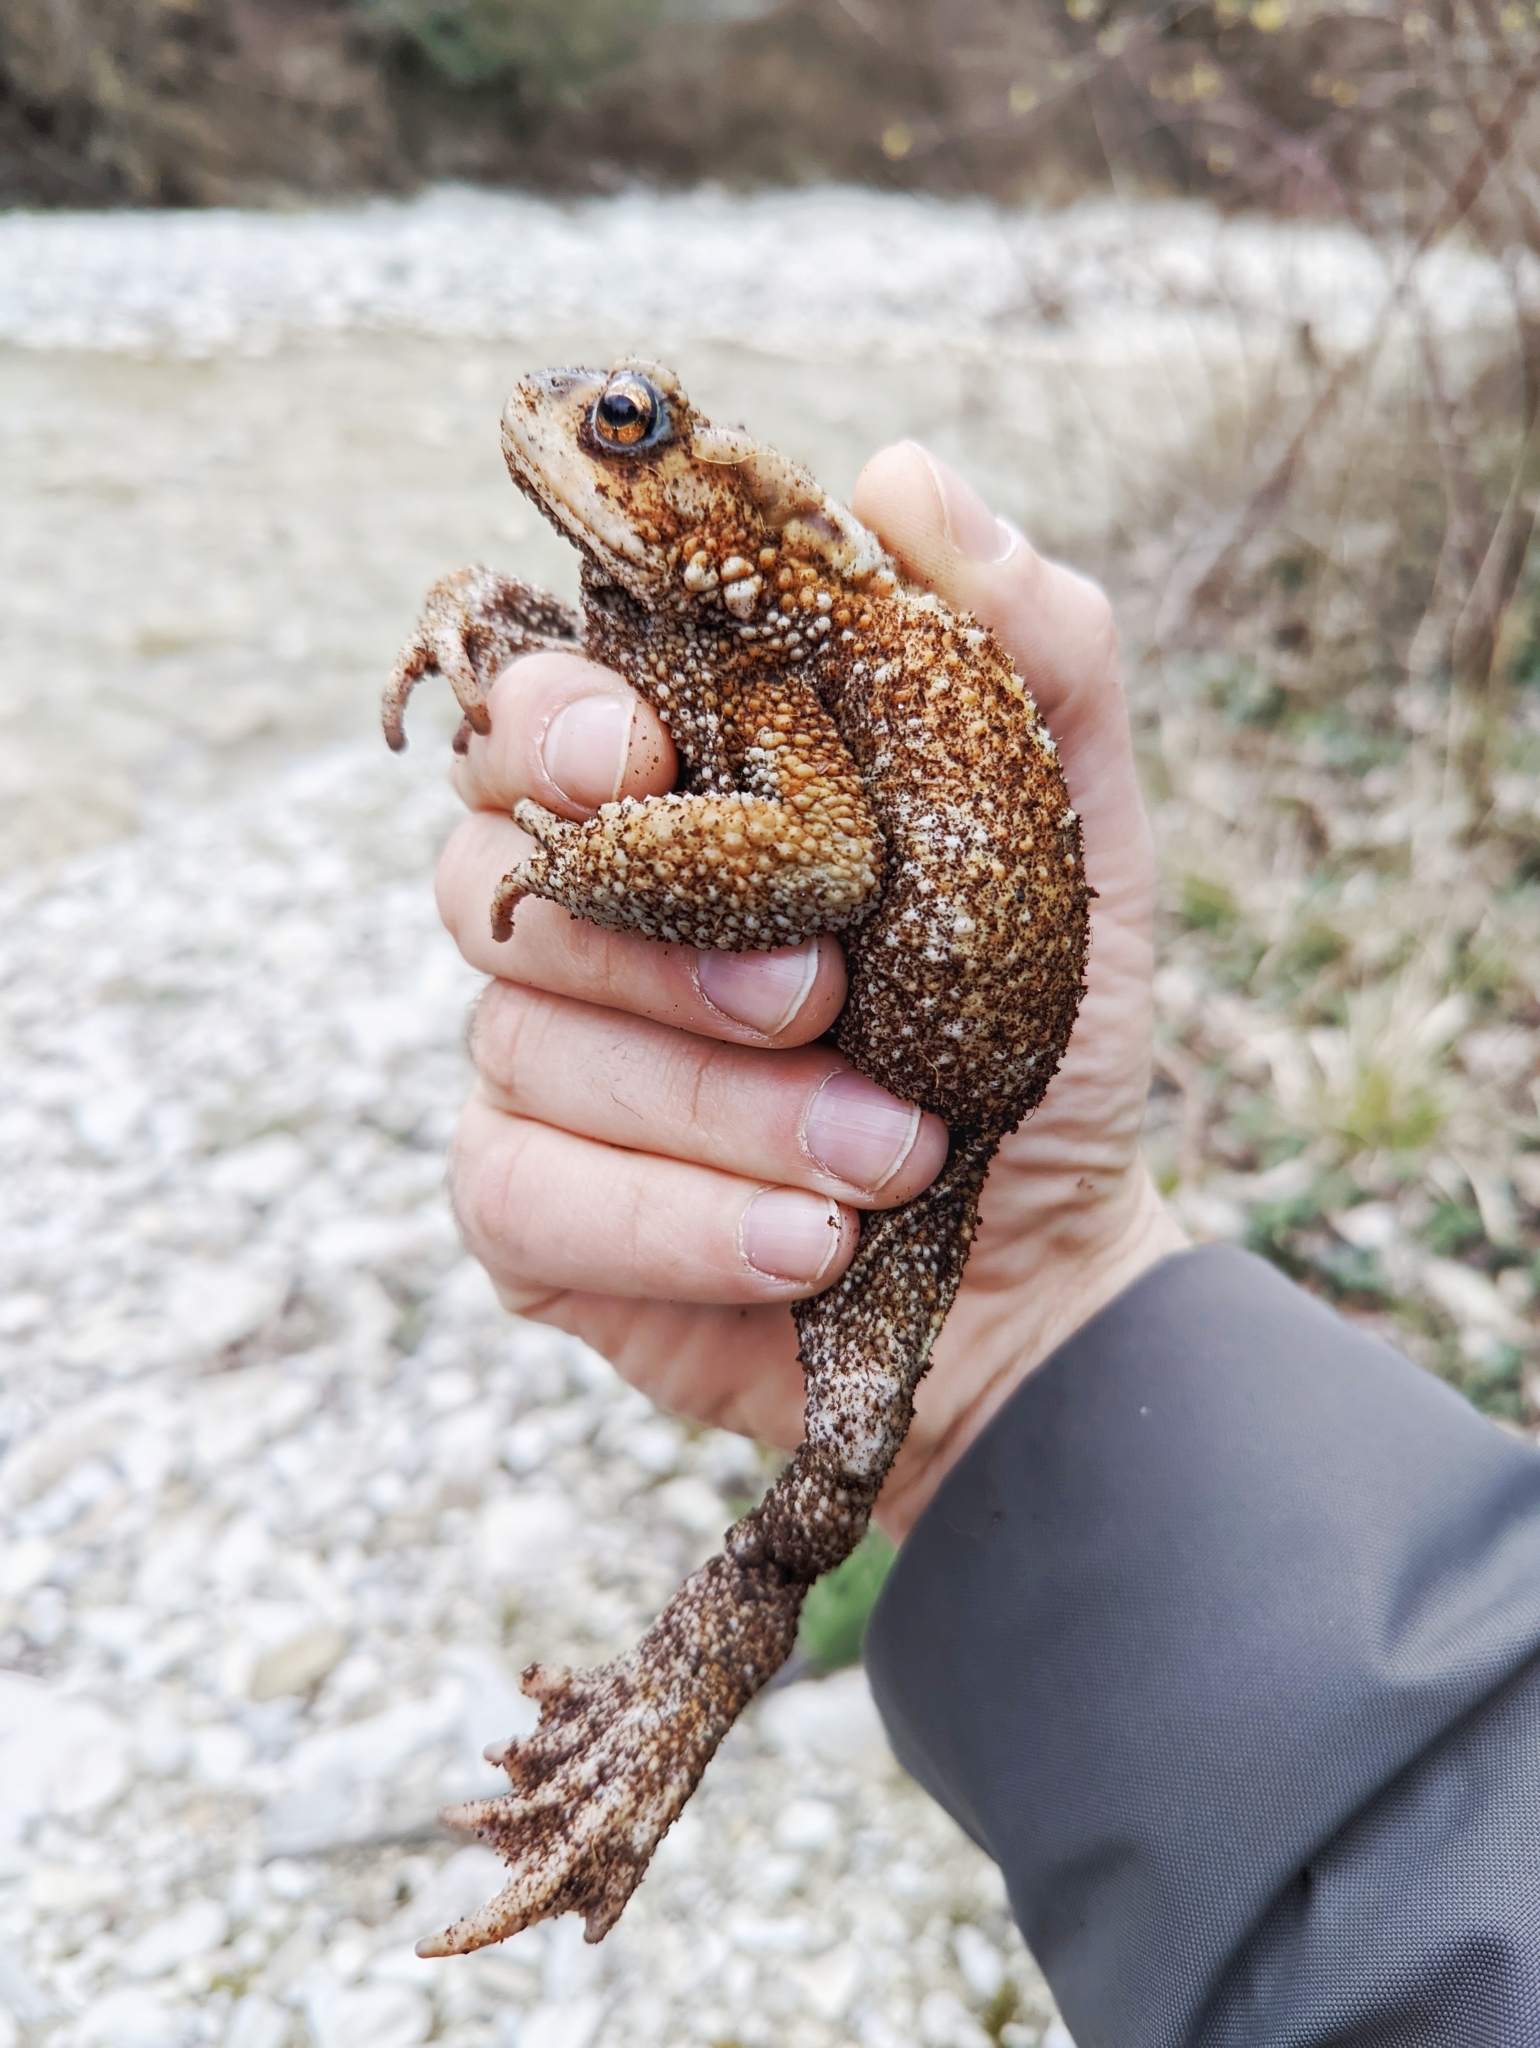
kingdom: Animalia
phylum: Chordata
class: Amphibia
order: Anura
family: Bufonidae
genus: Bufo
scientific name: Bufo verrucosissimus
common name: Caucasian toad
